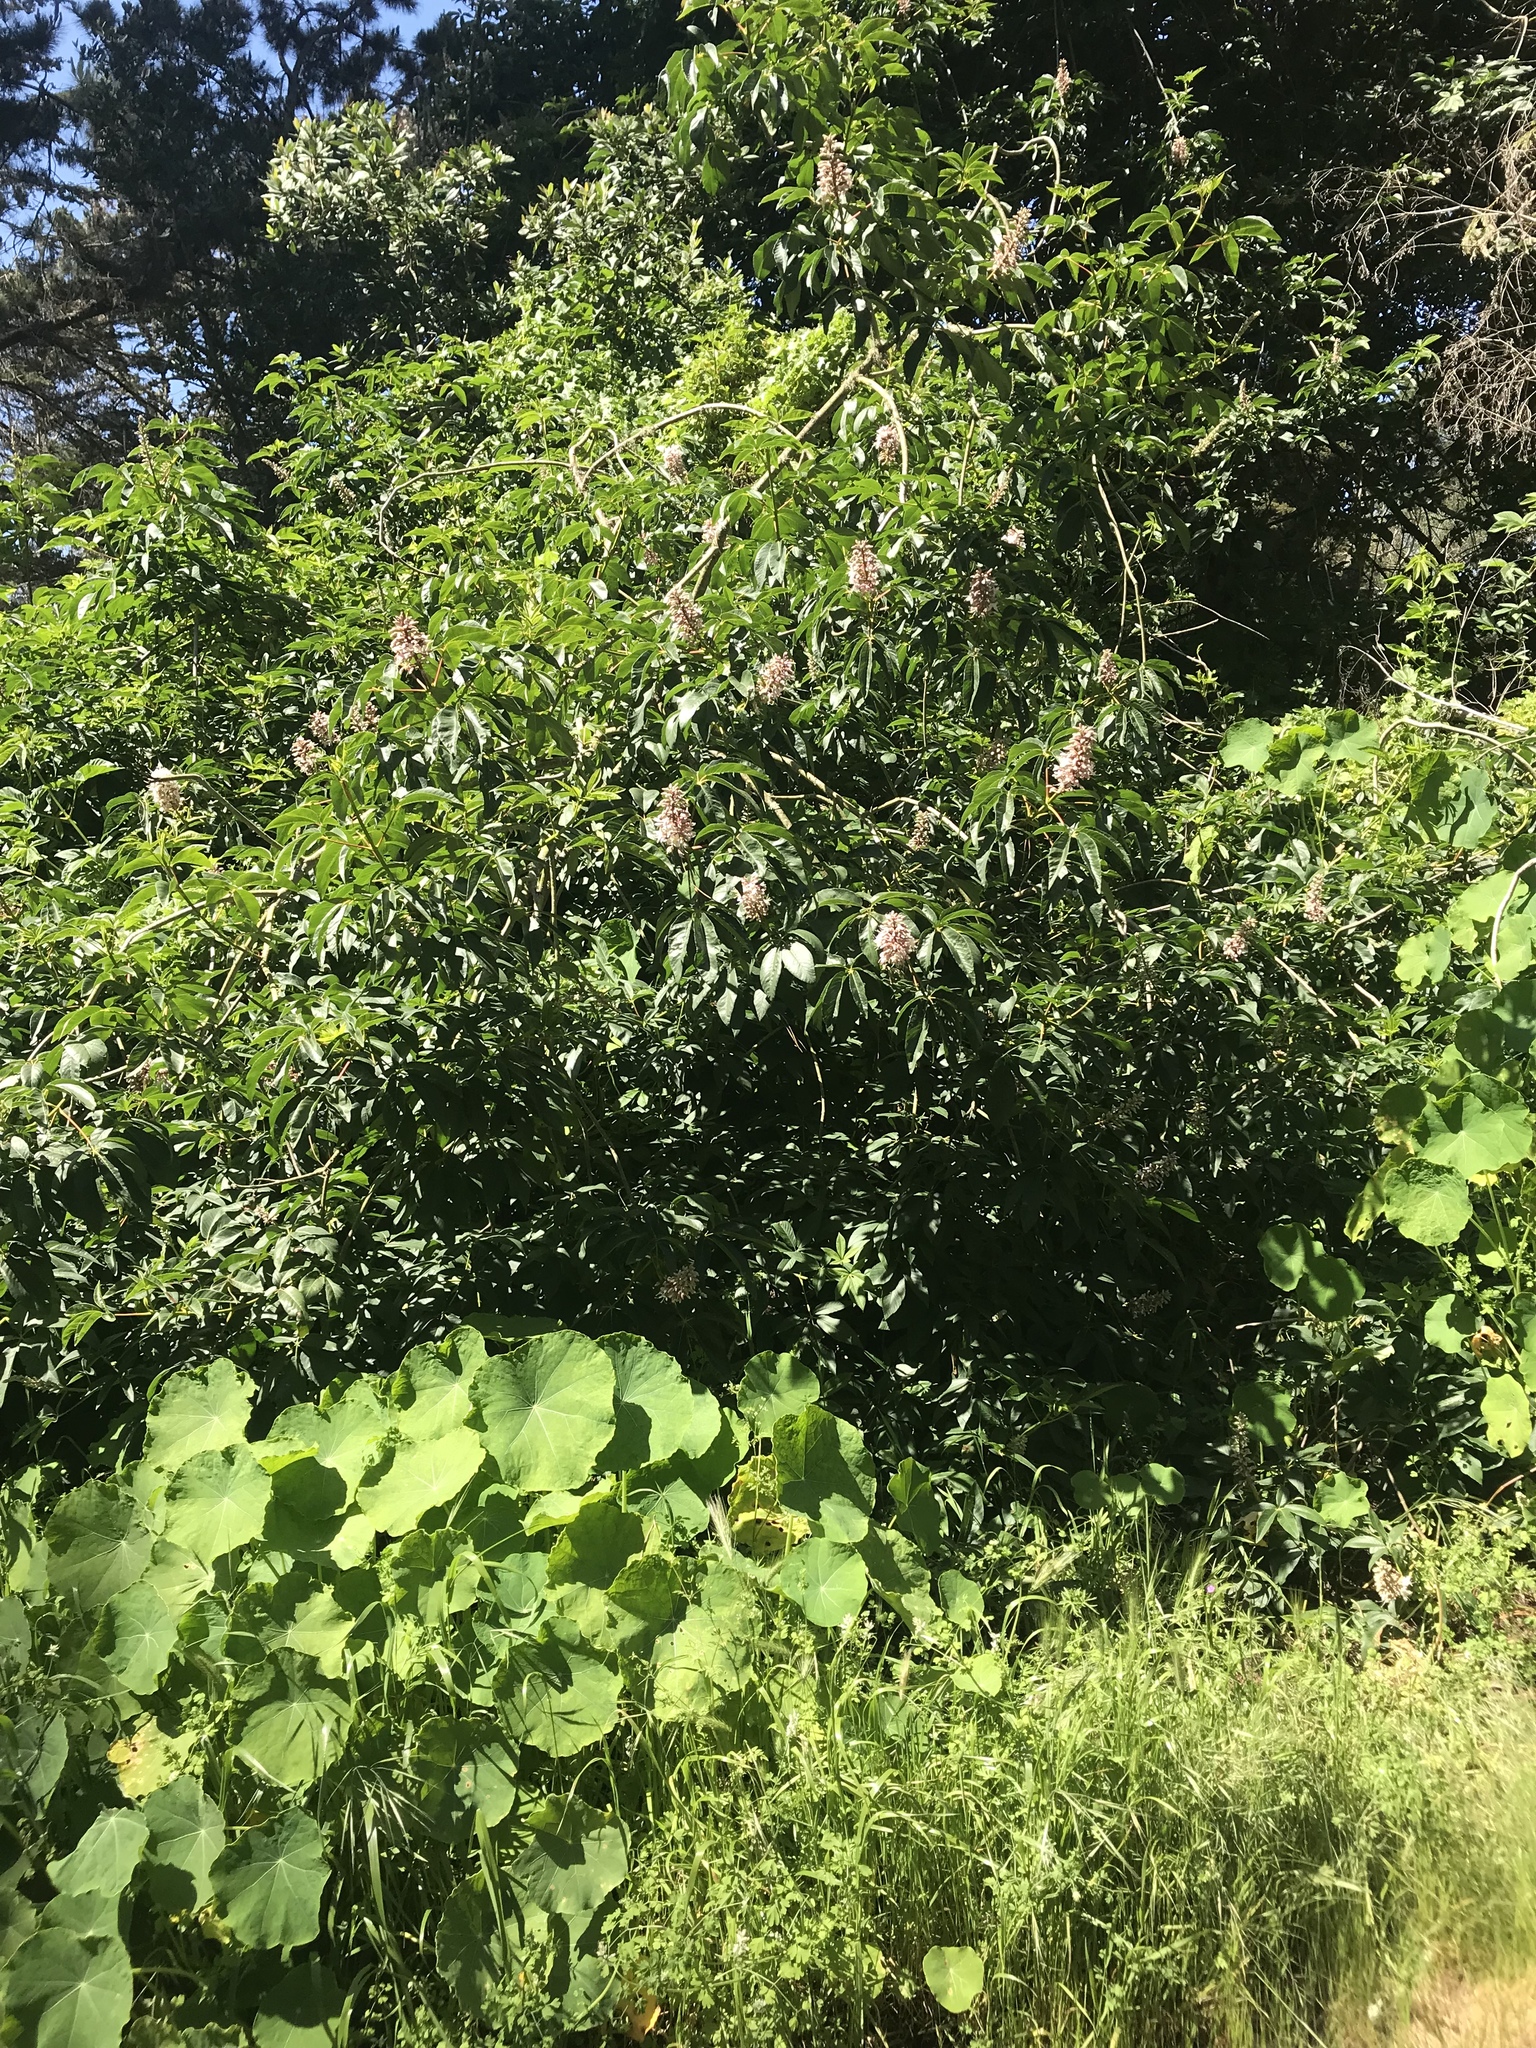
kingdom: Plantae
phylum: Tracheophyta
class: Magnoliopsida
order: Sapindales
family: Sapindaceae
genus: Aesculus
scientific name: Aesculus californica
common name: California buckeye
